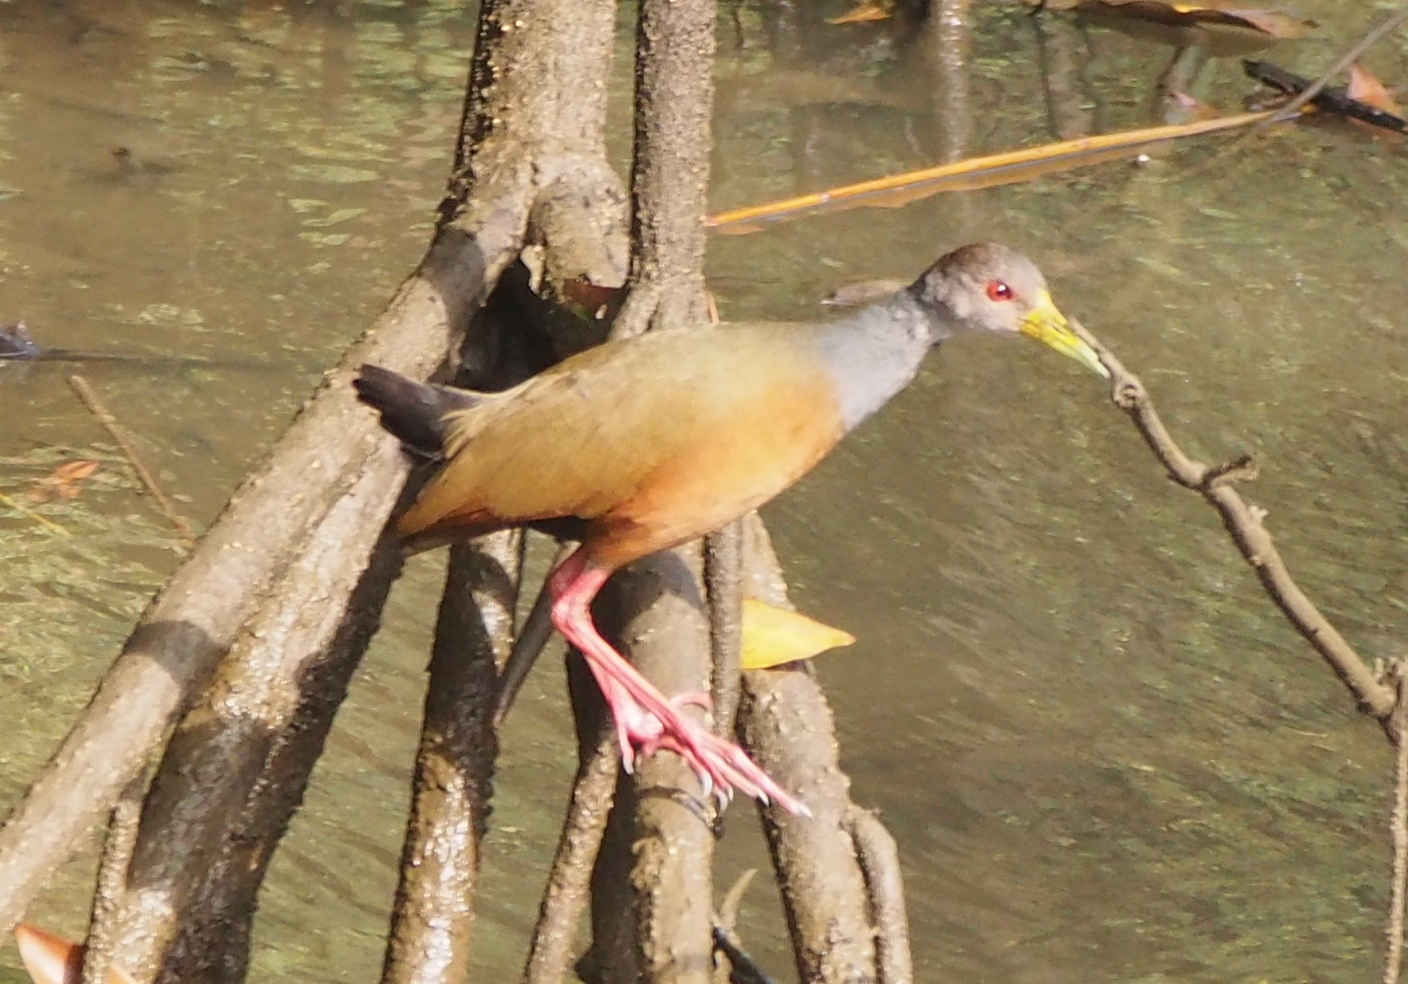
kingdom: Animalia
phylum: Chordata
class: Aves
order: Gruiformes
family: Rallidae
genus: Aramides
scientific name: Aramides cajanea
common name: Gray-necked wood-rail
